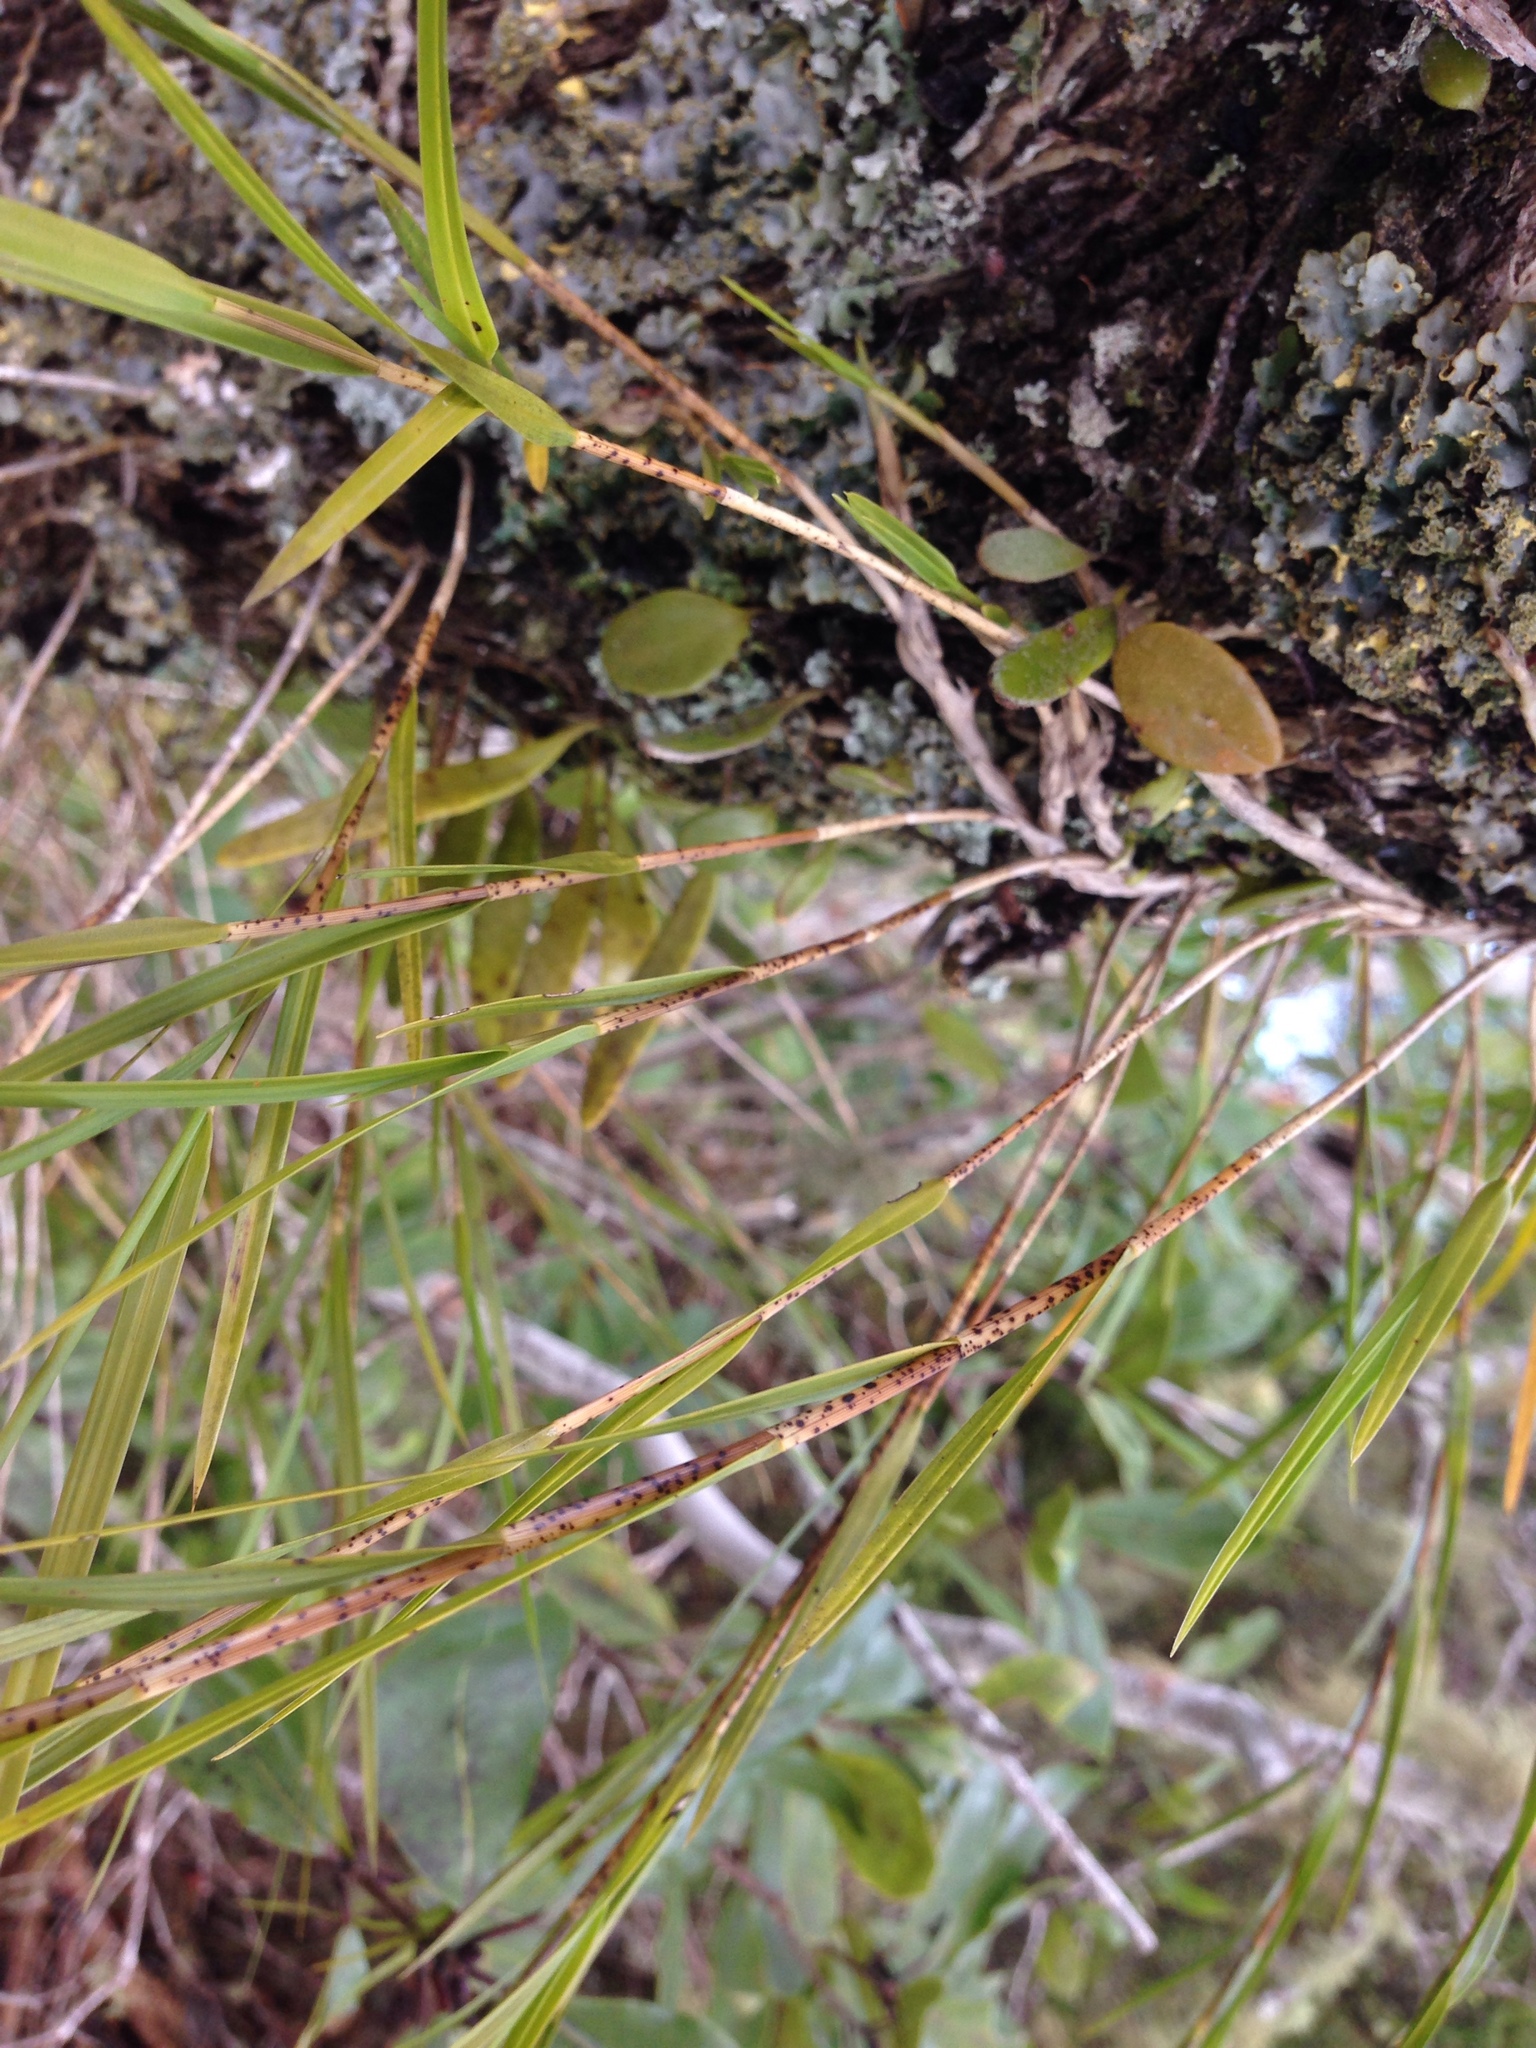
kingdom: Plantae
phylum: Tracheophyta
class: Liliopsida
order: Asparagales
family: Orchidaceae
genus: Earina
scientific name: Earina mucronata
